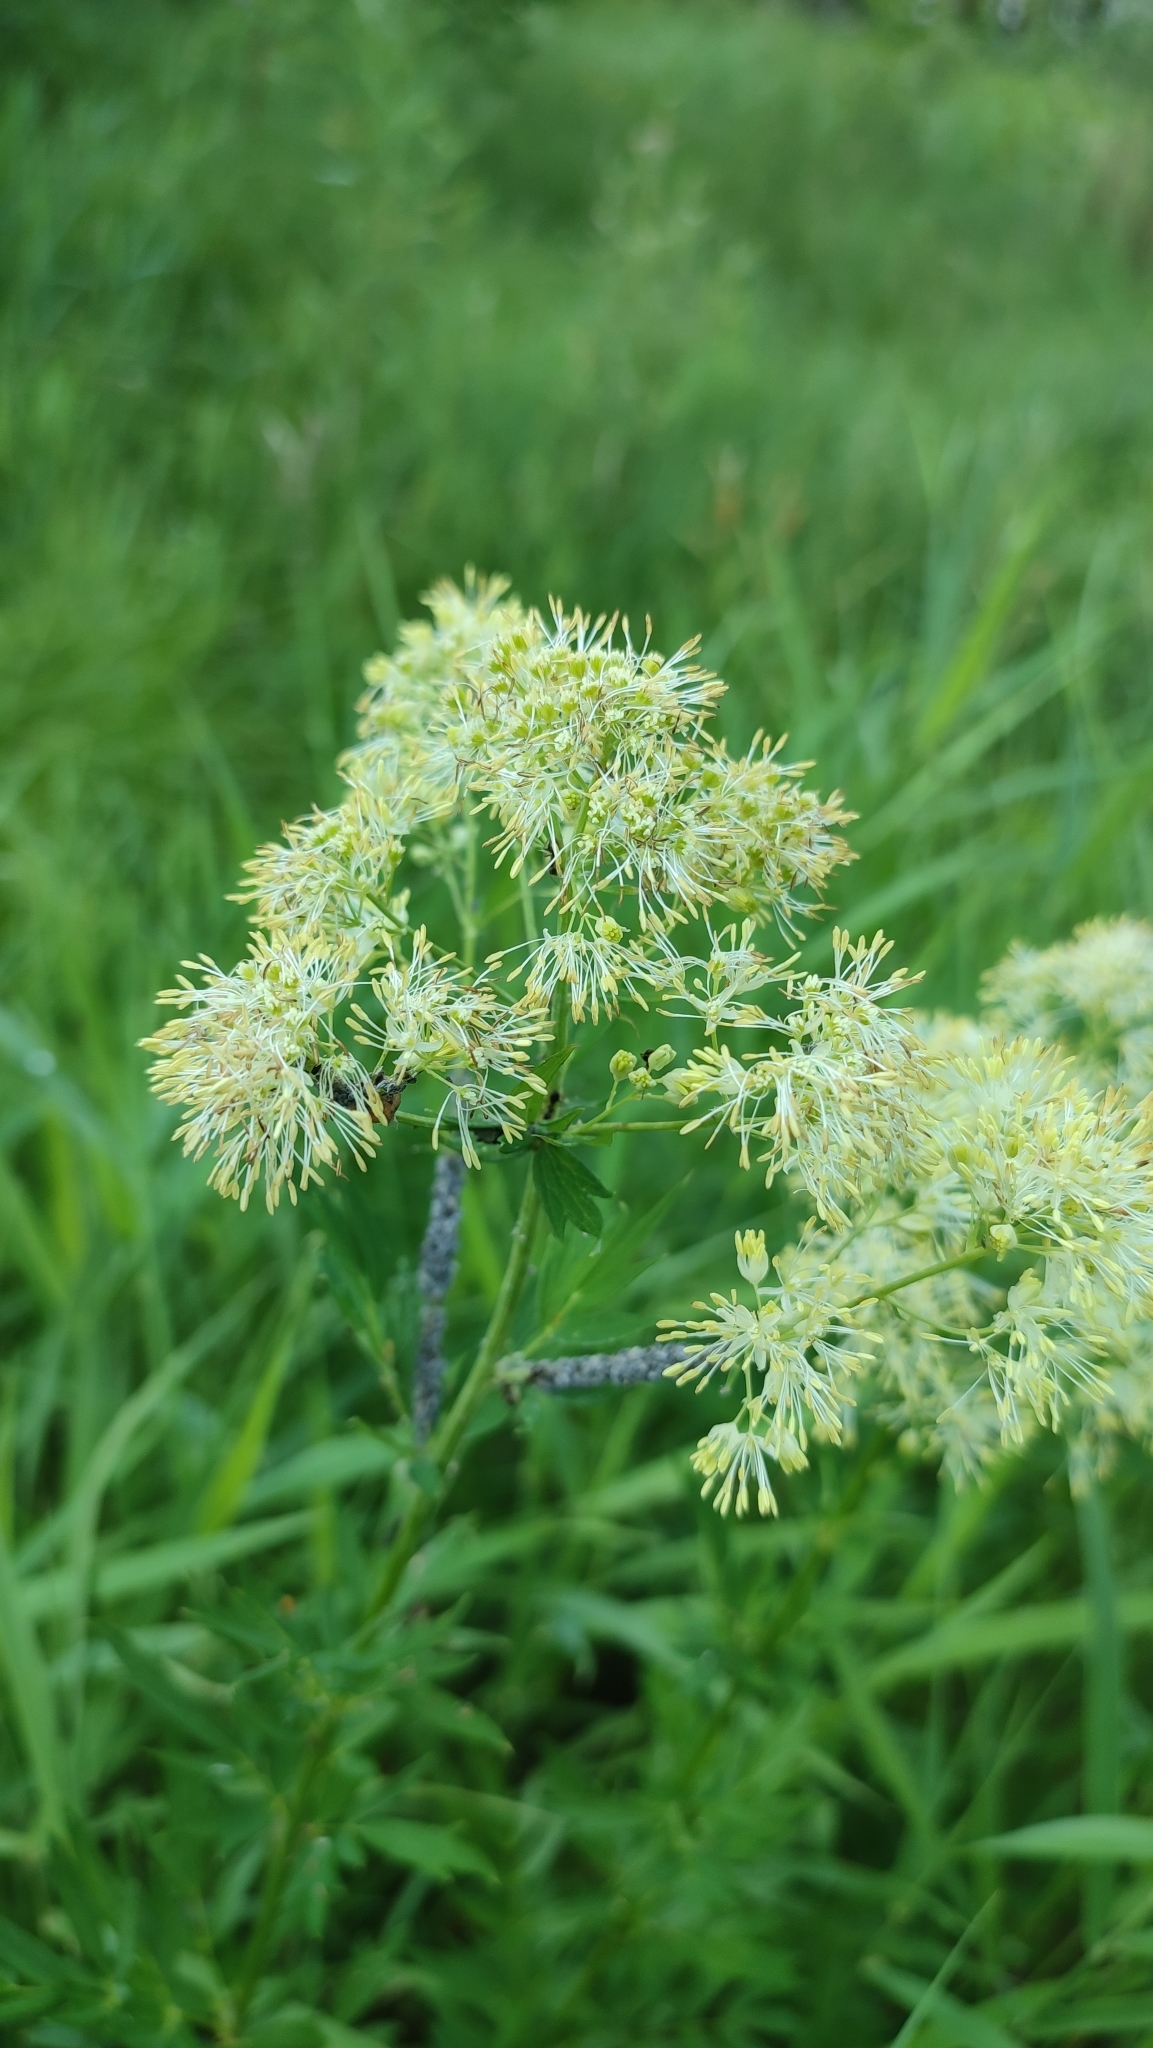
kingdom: Plantae
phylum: Tracheophyta
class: Magnoliopsida
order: Ranunculales
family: Ranunculaceae
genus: Thalictrum
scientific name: Thalictrum flavum
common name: Common meadow-rue
